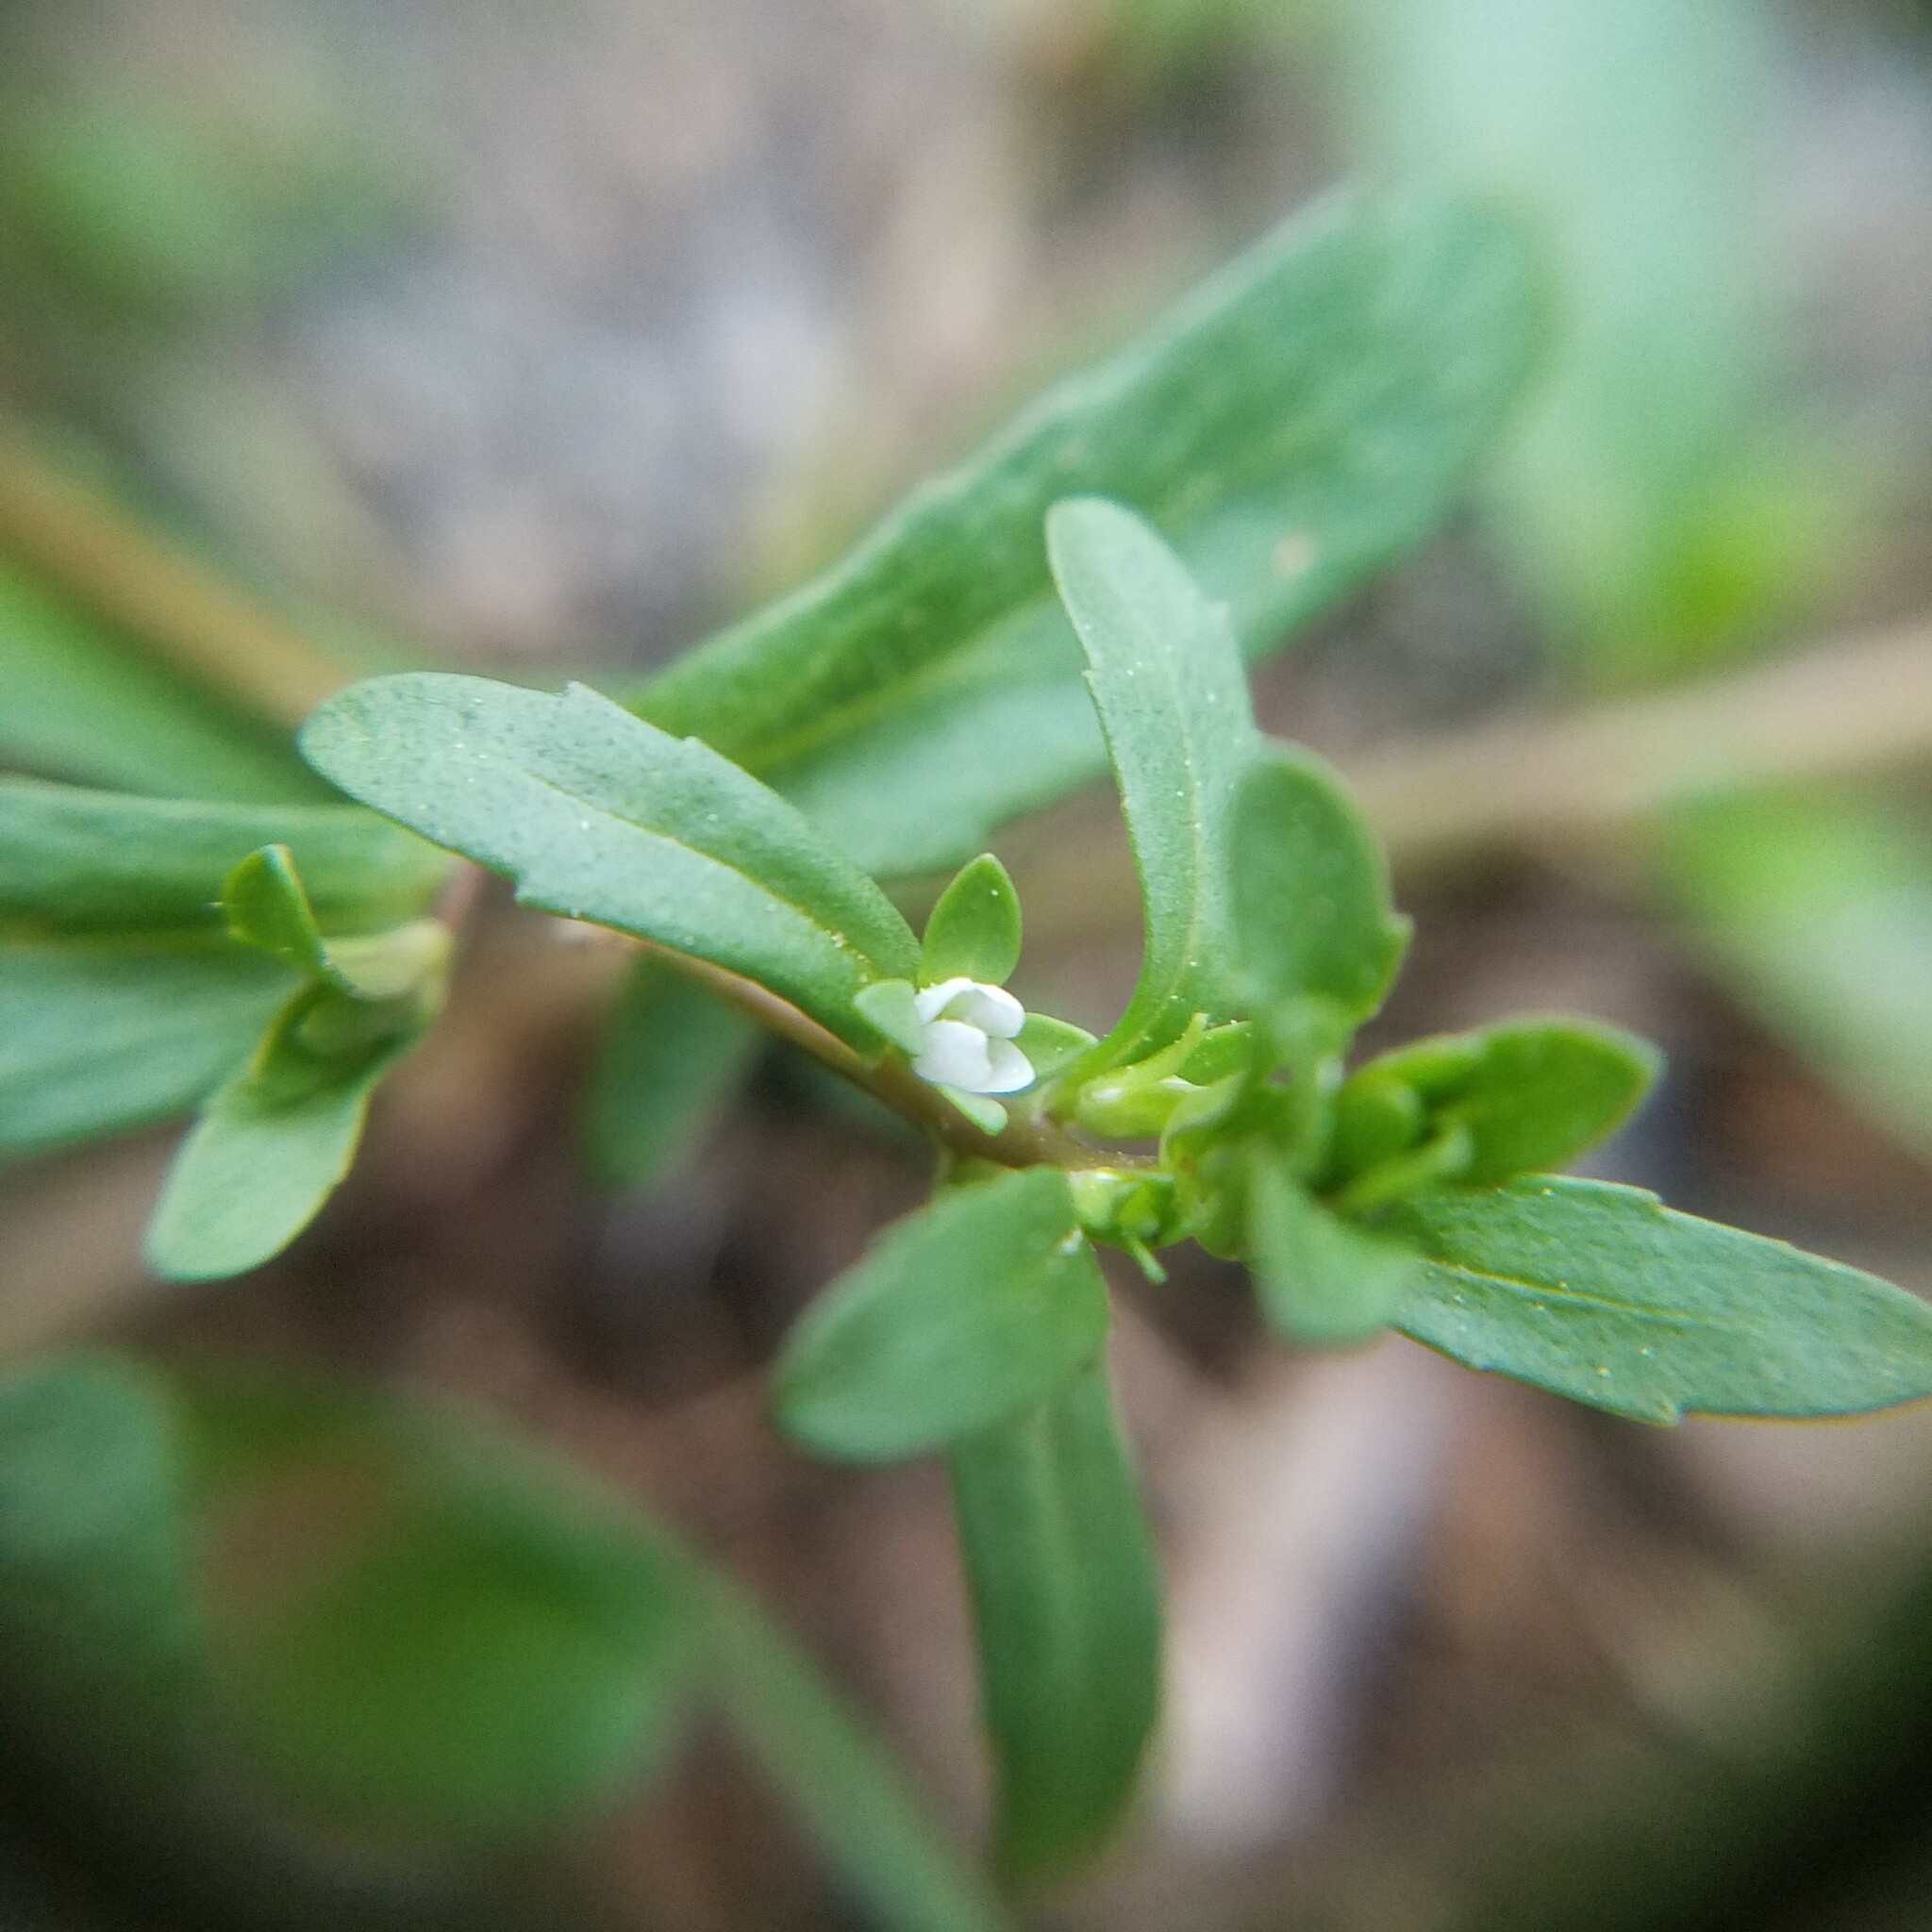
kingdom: Plantae
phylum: Tracheophyta
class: Magnoliopsida
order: Lamiales
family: Plantaginaceae
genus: Veronica
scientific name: Veronica peregrina
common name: Neckweed
